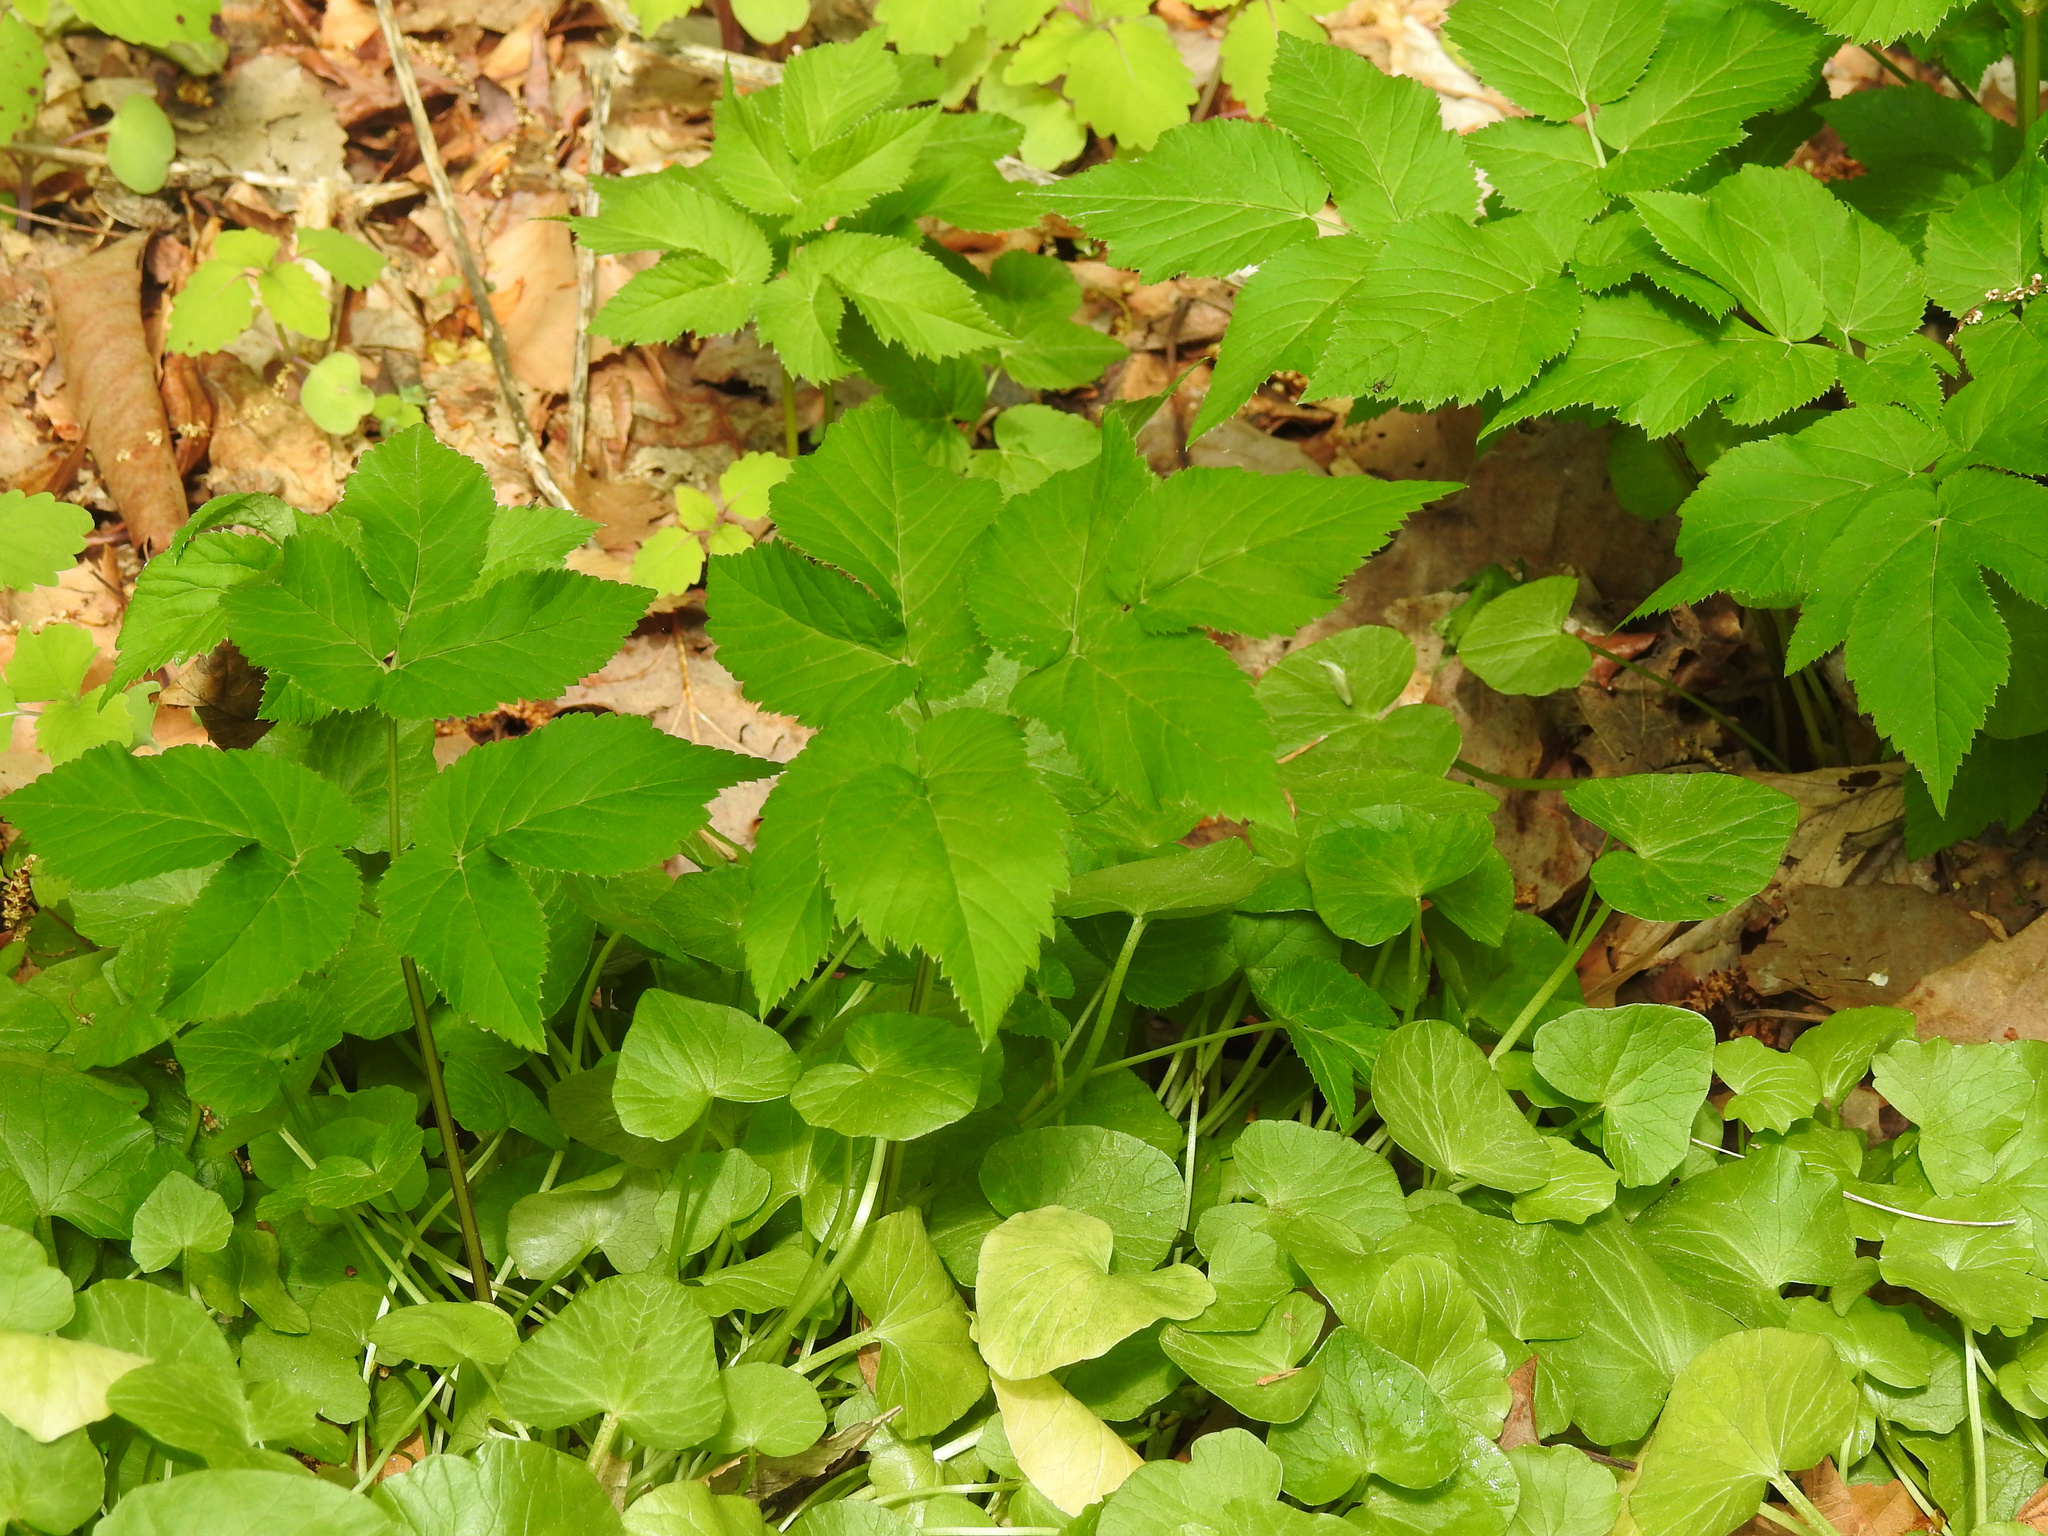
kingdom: Plantae
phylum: Tracheophyta
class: Magnoliopsida
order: Apiales
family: Apiaceae
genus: Aegopodium
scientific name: Aegopodium podagraria
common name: Ground-elder
